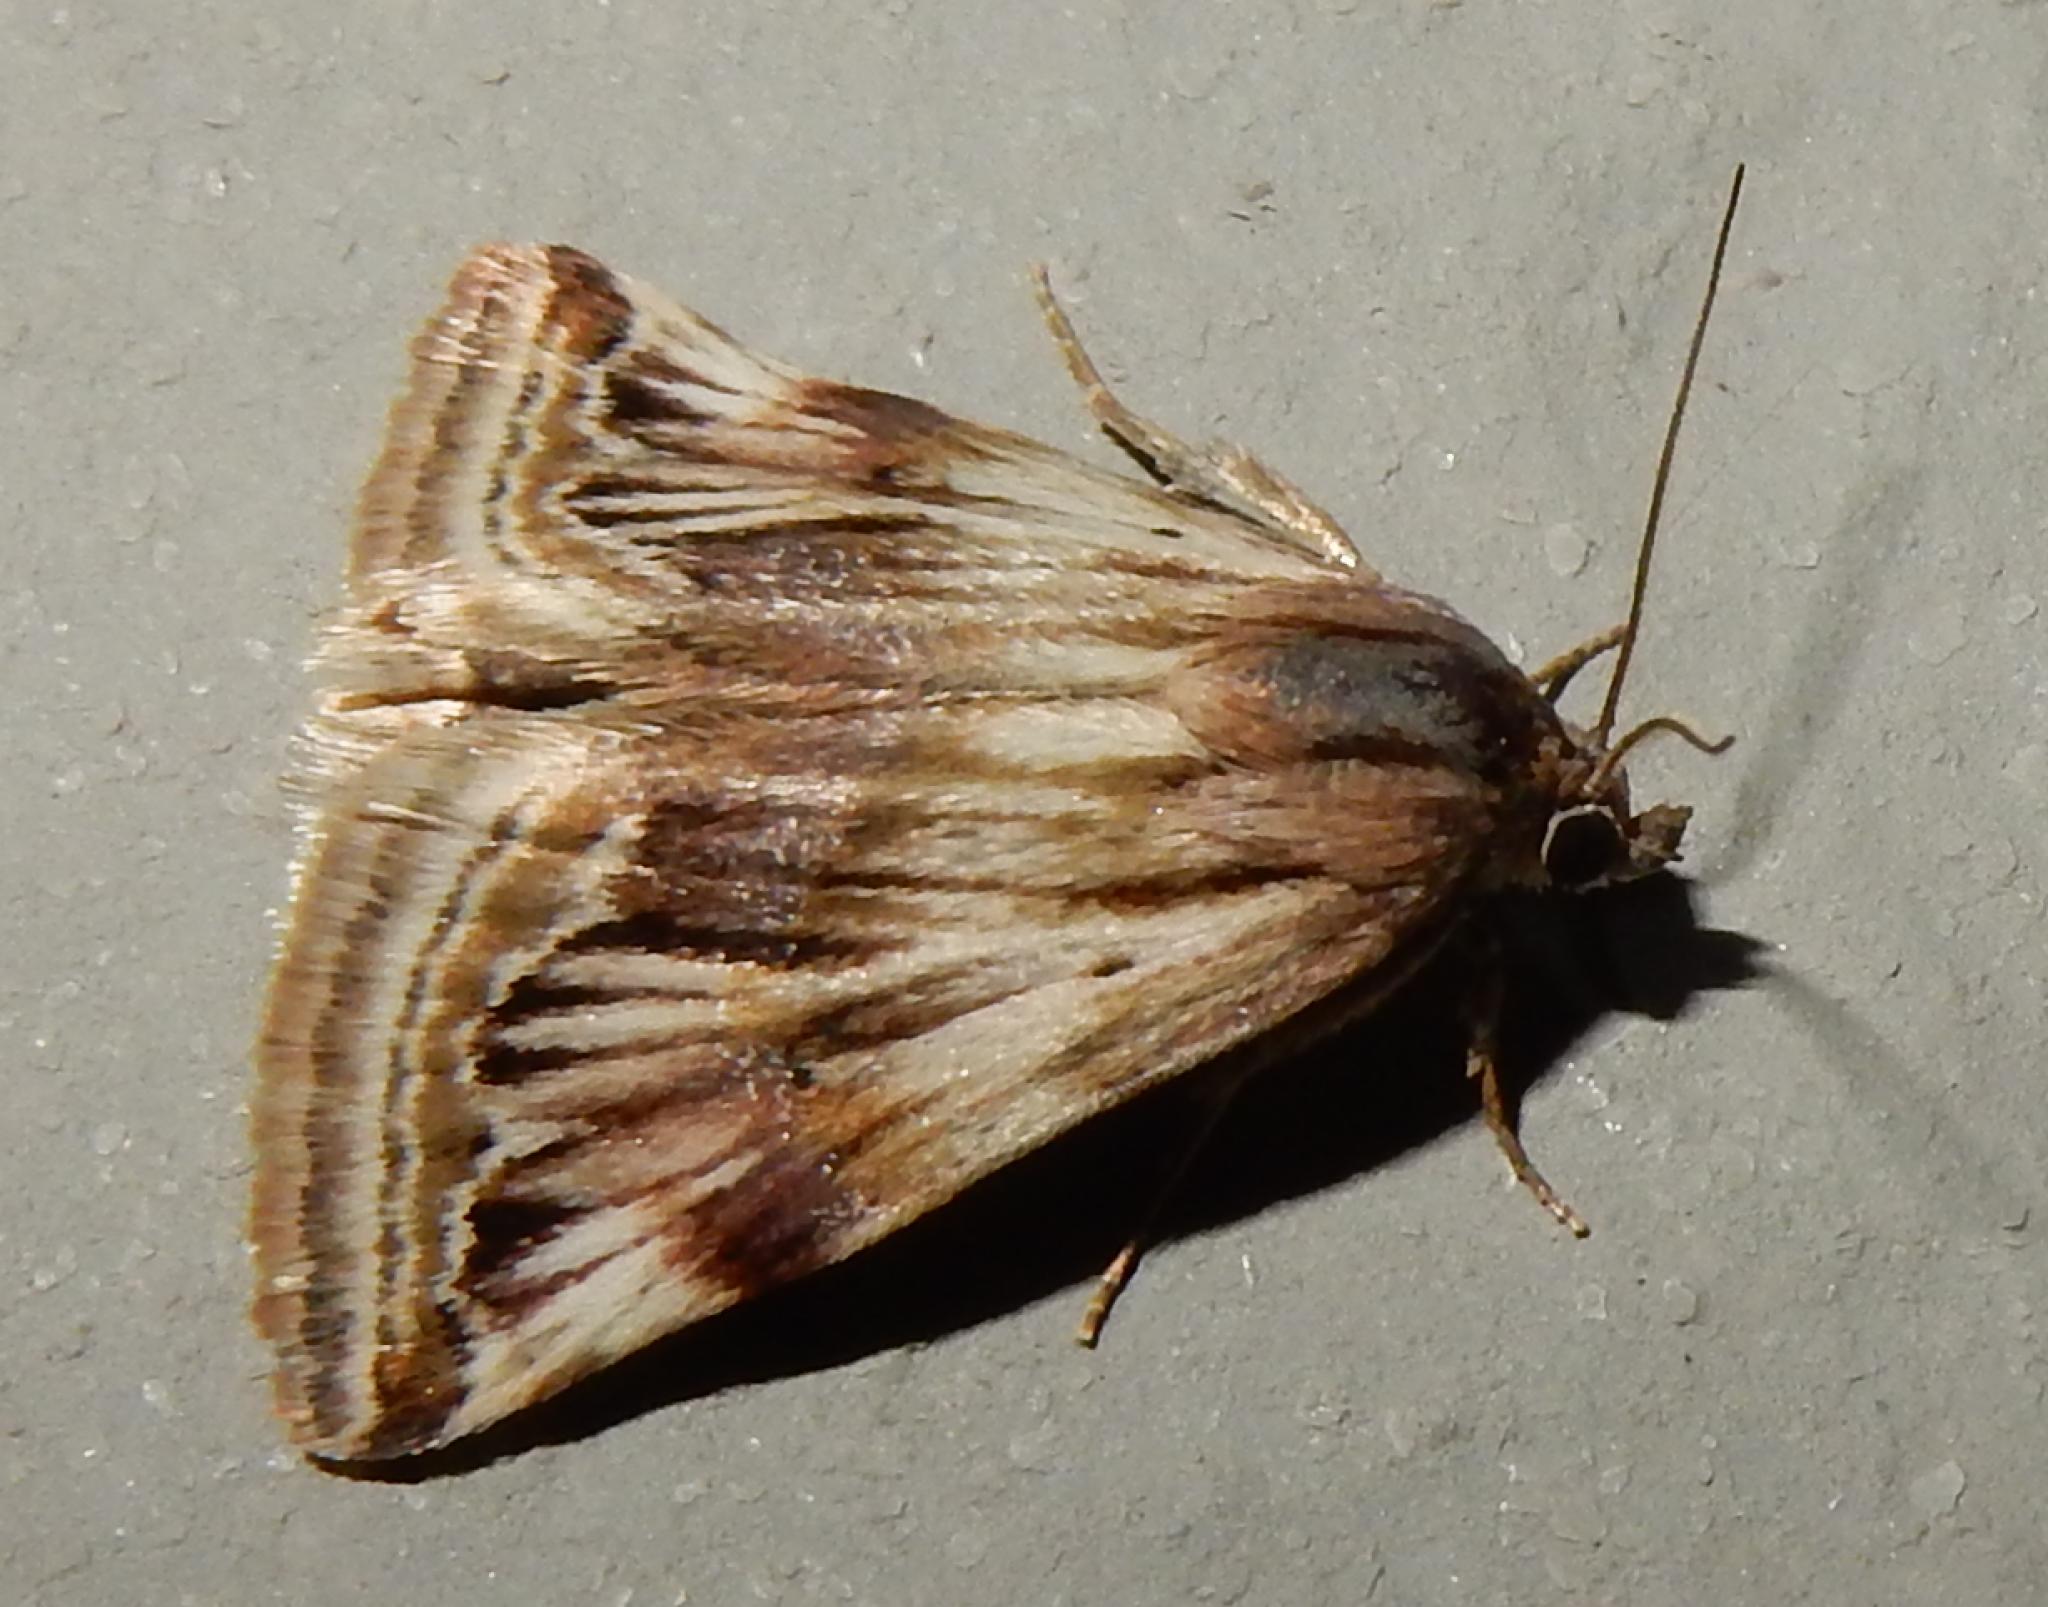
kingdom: Animalia
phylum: Arthropoda
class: Insecta
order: Lepidoptera
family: Noctuidae
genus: Eublemma
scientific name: Eublemma staudingeri
